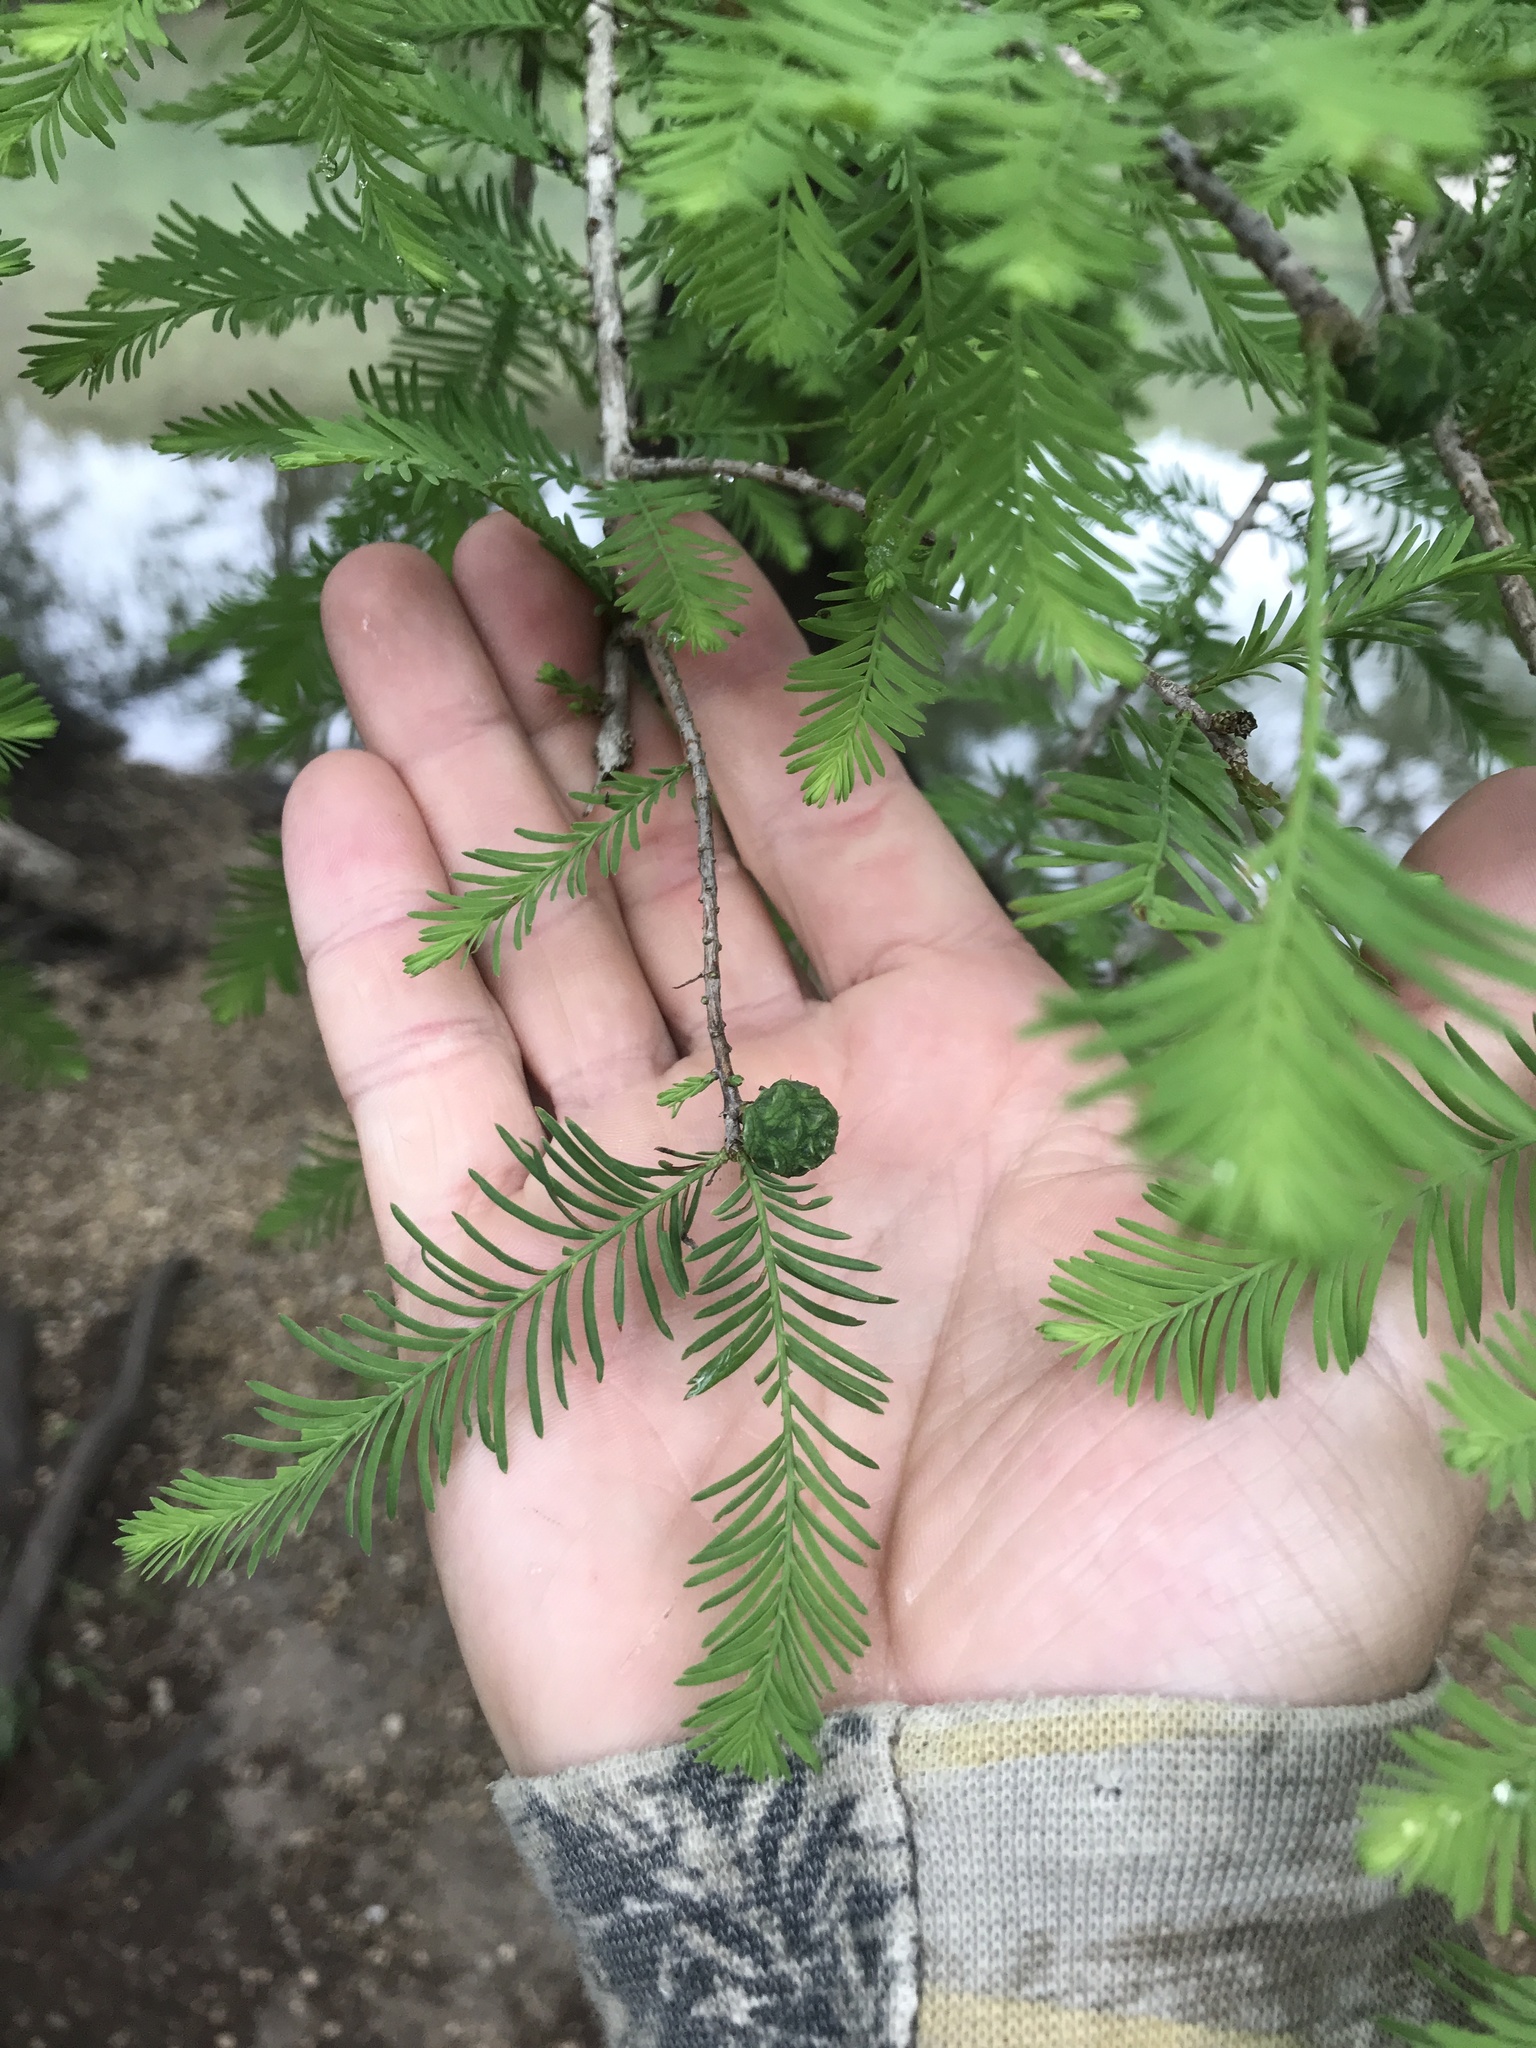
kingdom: Plantae
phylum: Tracheophyta
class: Pinopsida
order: Pinales
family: Cupressaceae
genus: Taxodium
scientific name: Taxodium distichum
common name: Bald cypress
